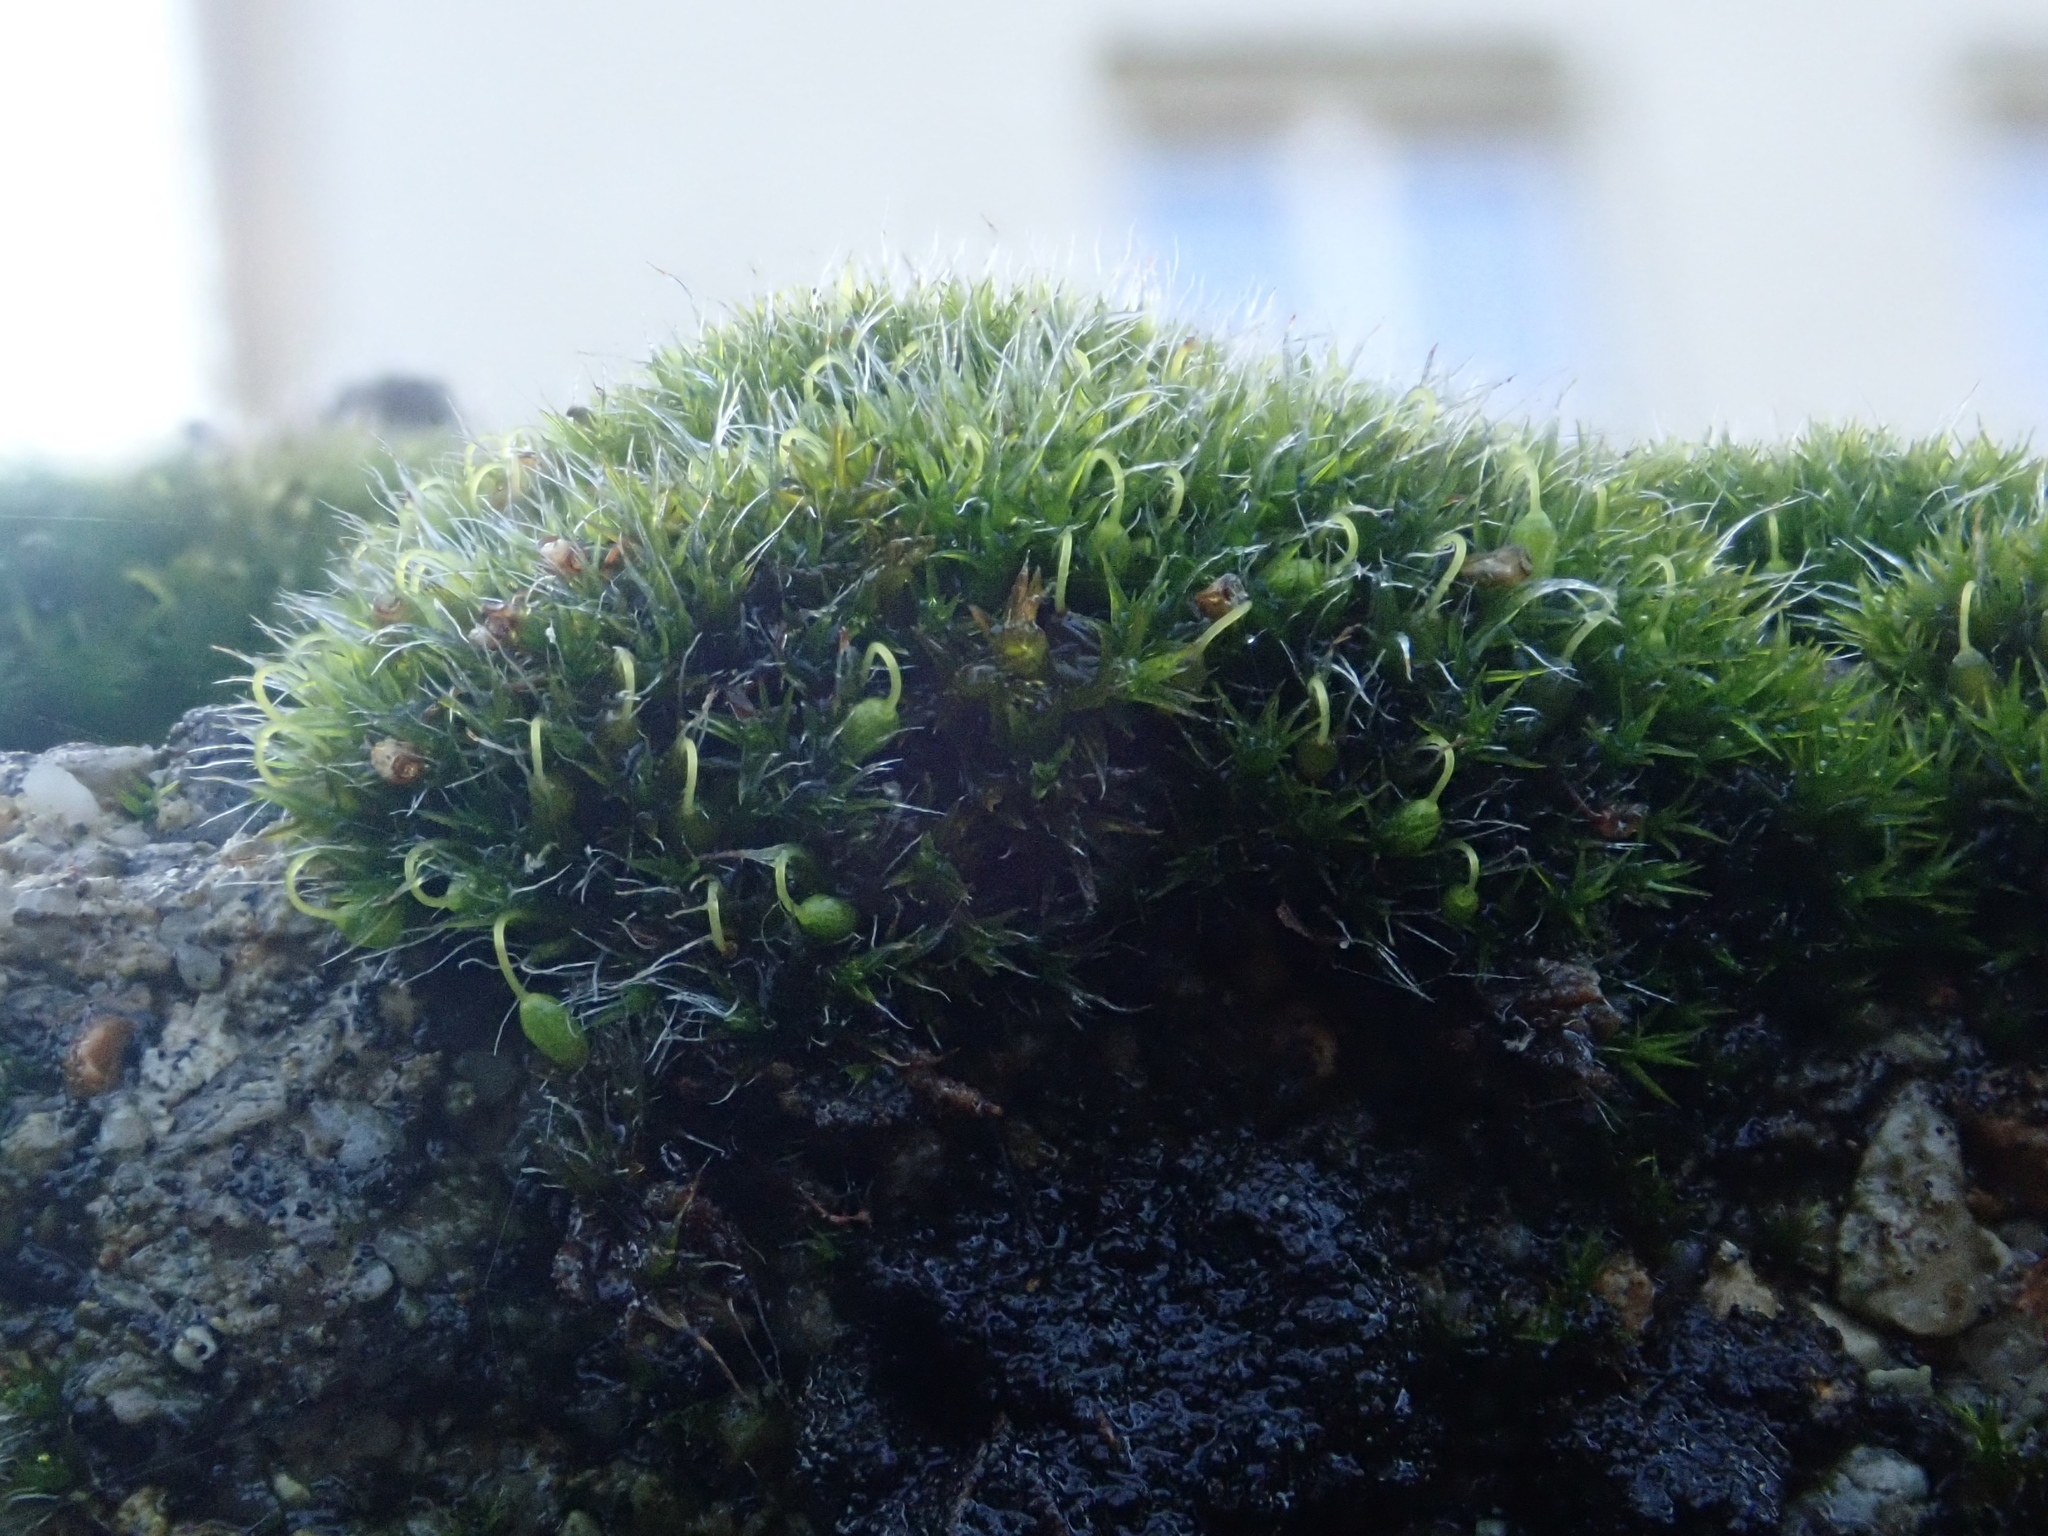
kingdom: Plantae
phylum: Bryophyta
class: Bryopsida
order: Grimmiales
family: Grimmiaceae
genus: Grimmia
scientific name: Grimmia pulvinata
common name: Grey-cushioned grimmia
